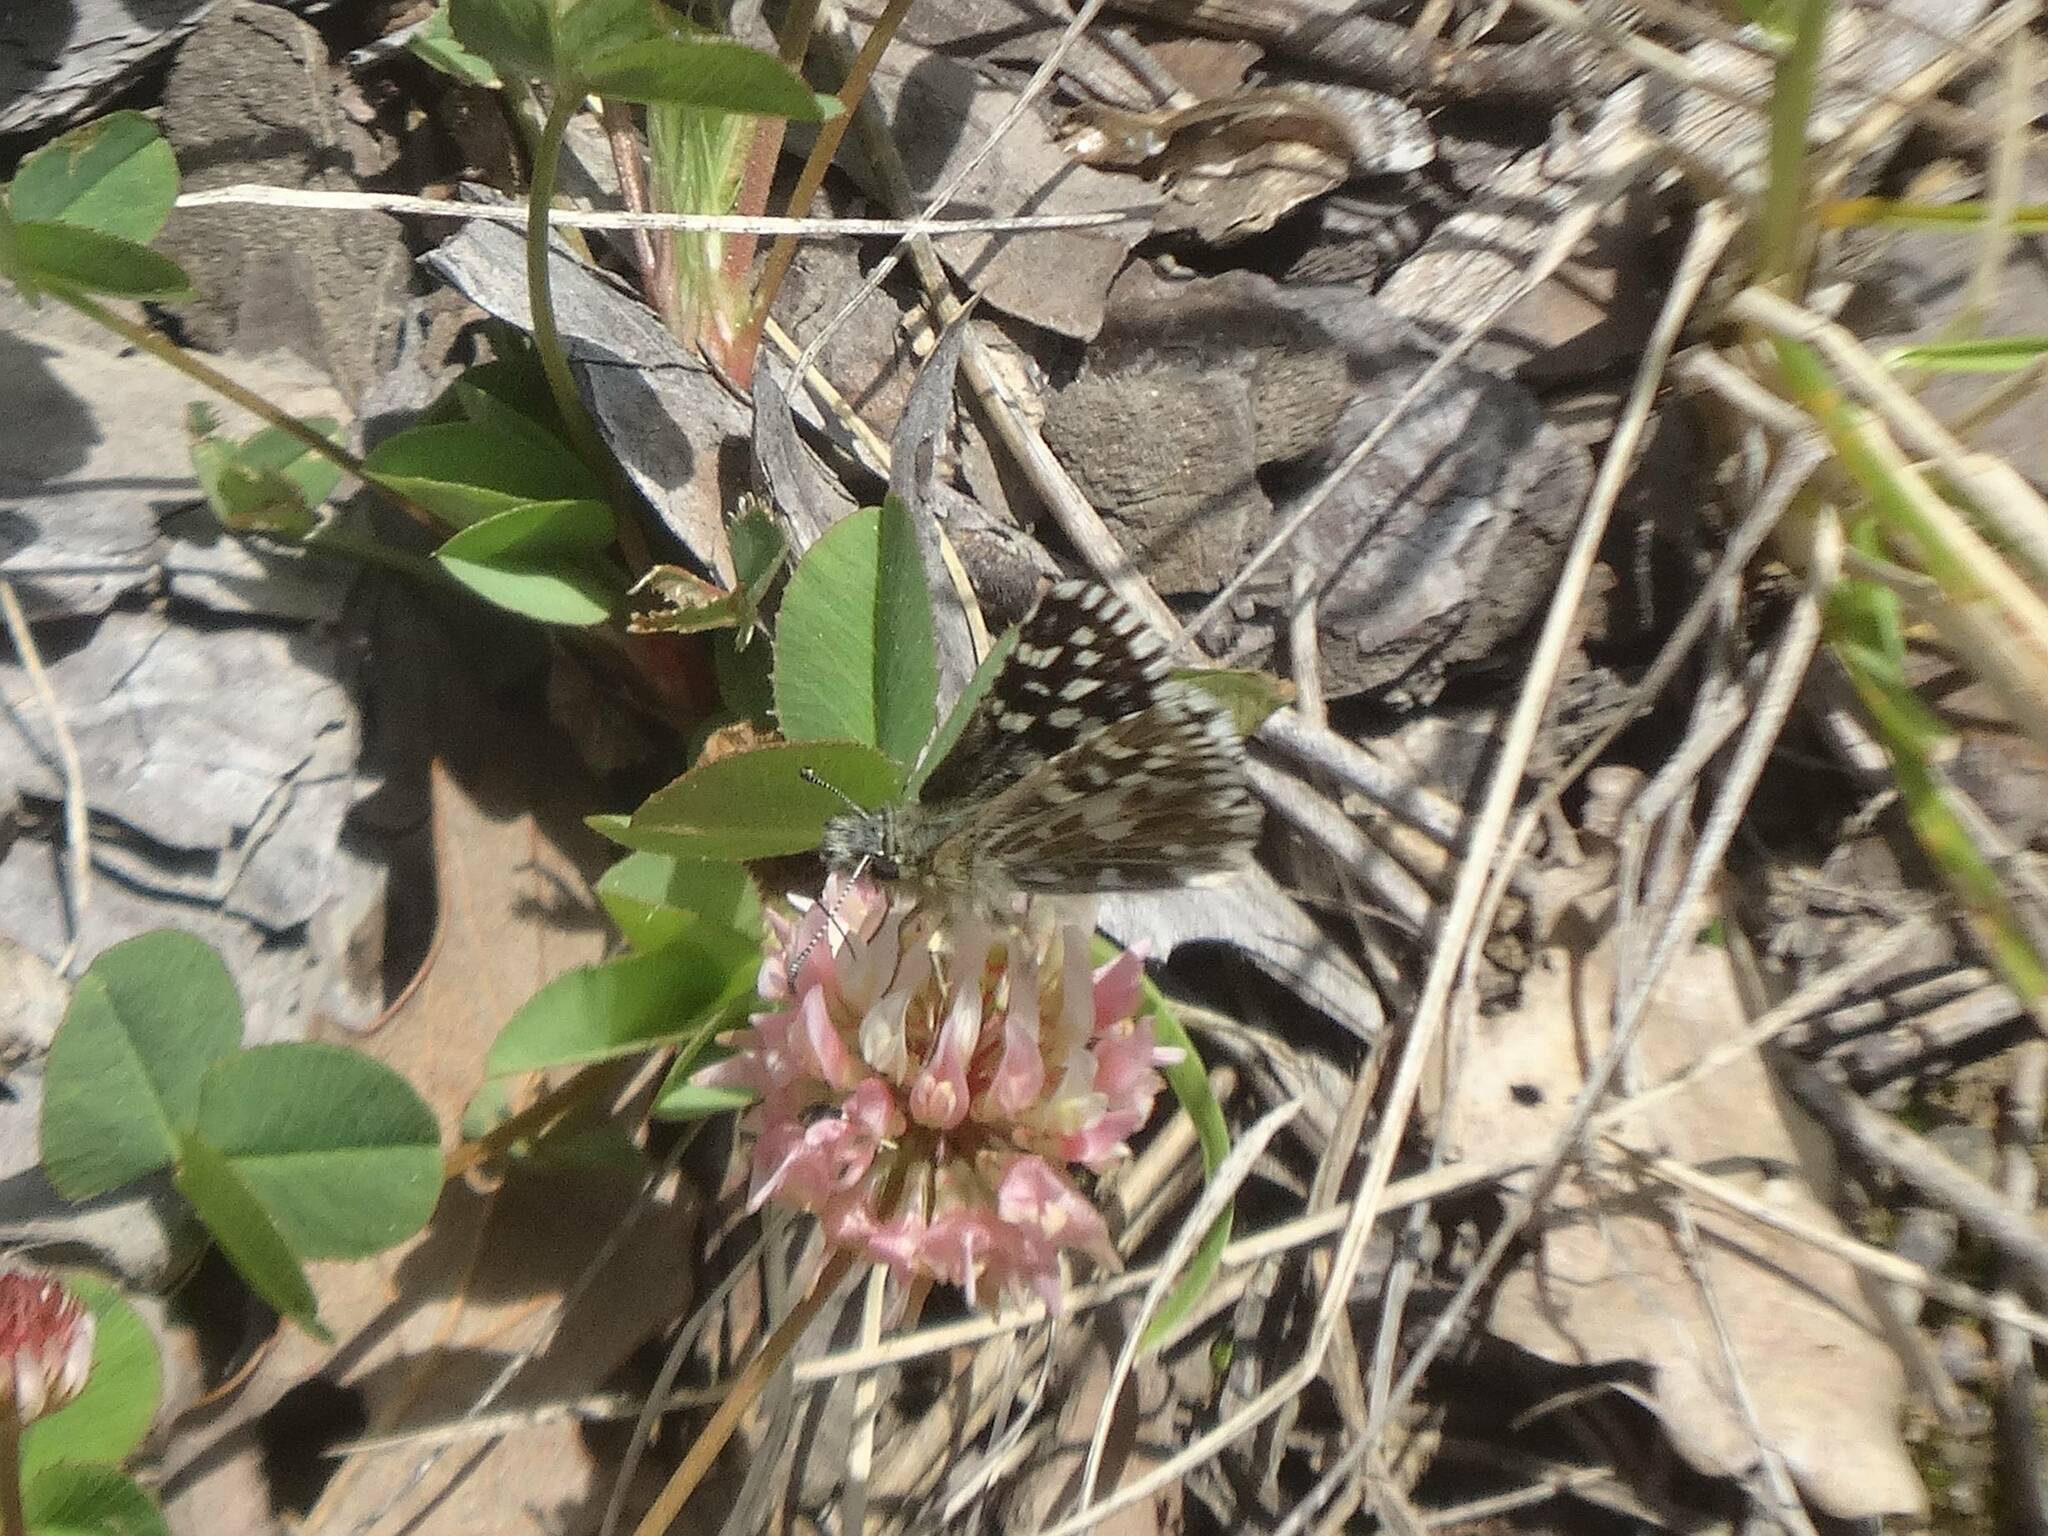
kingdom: Animalia
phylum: Arthropoda
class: Insecta
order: Lepidoptera
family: Hesperiidae
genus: Pyrgus
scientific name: Pyrgus malvae
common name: Grizzled skipper
